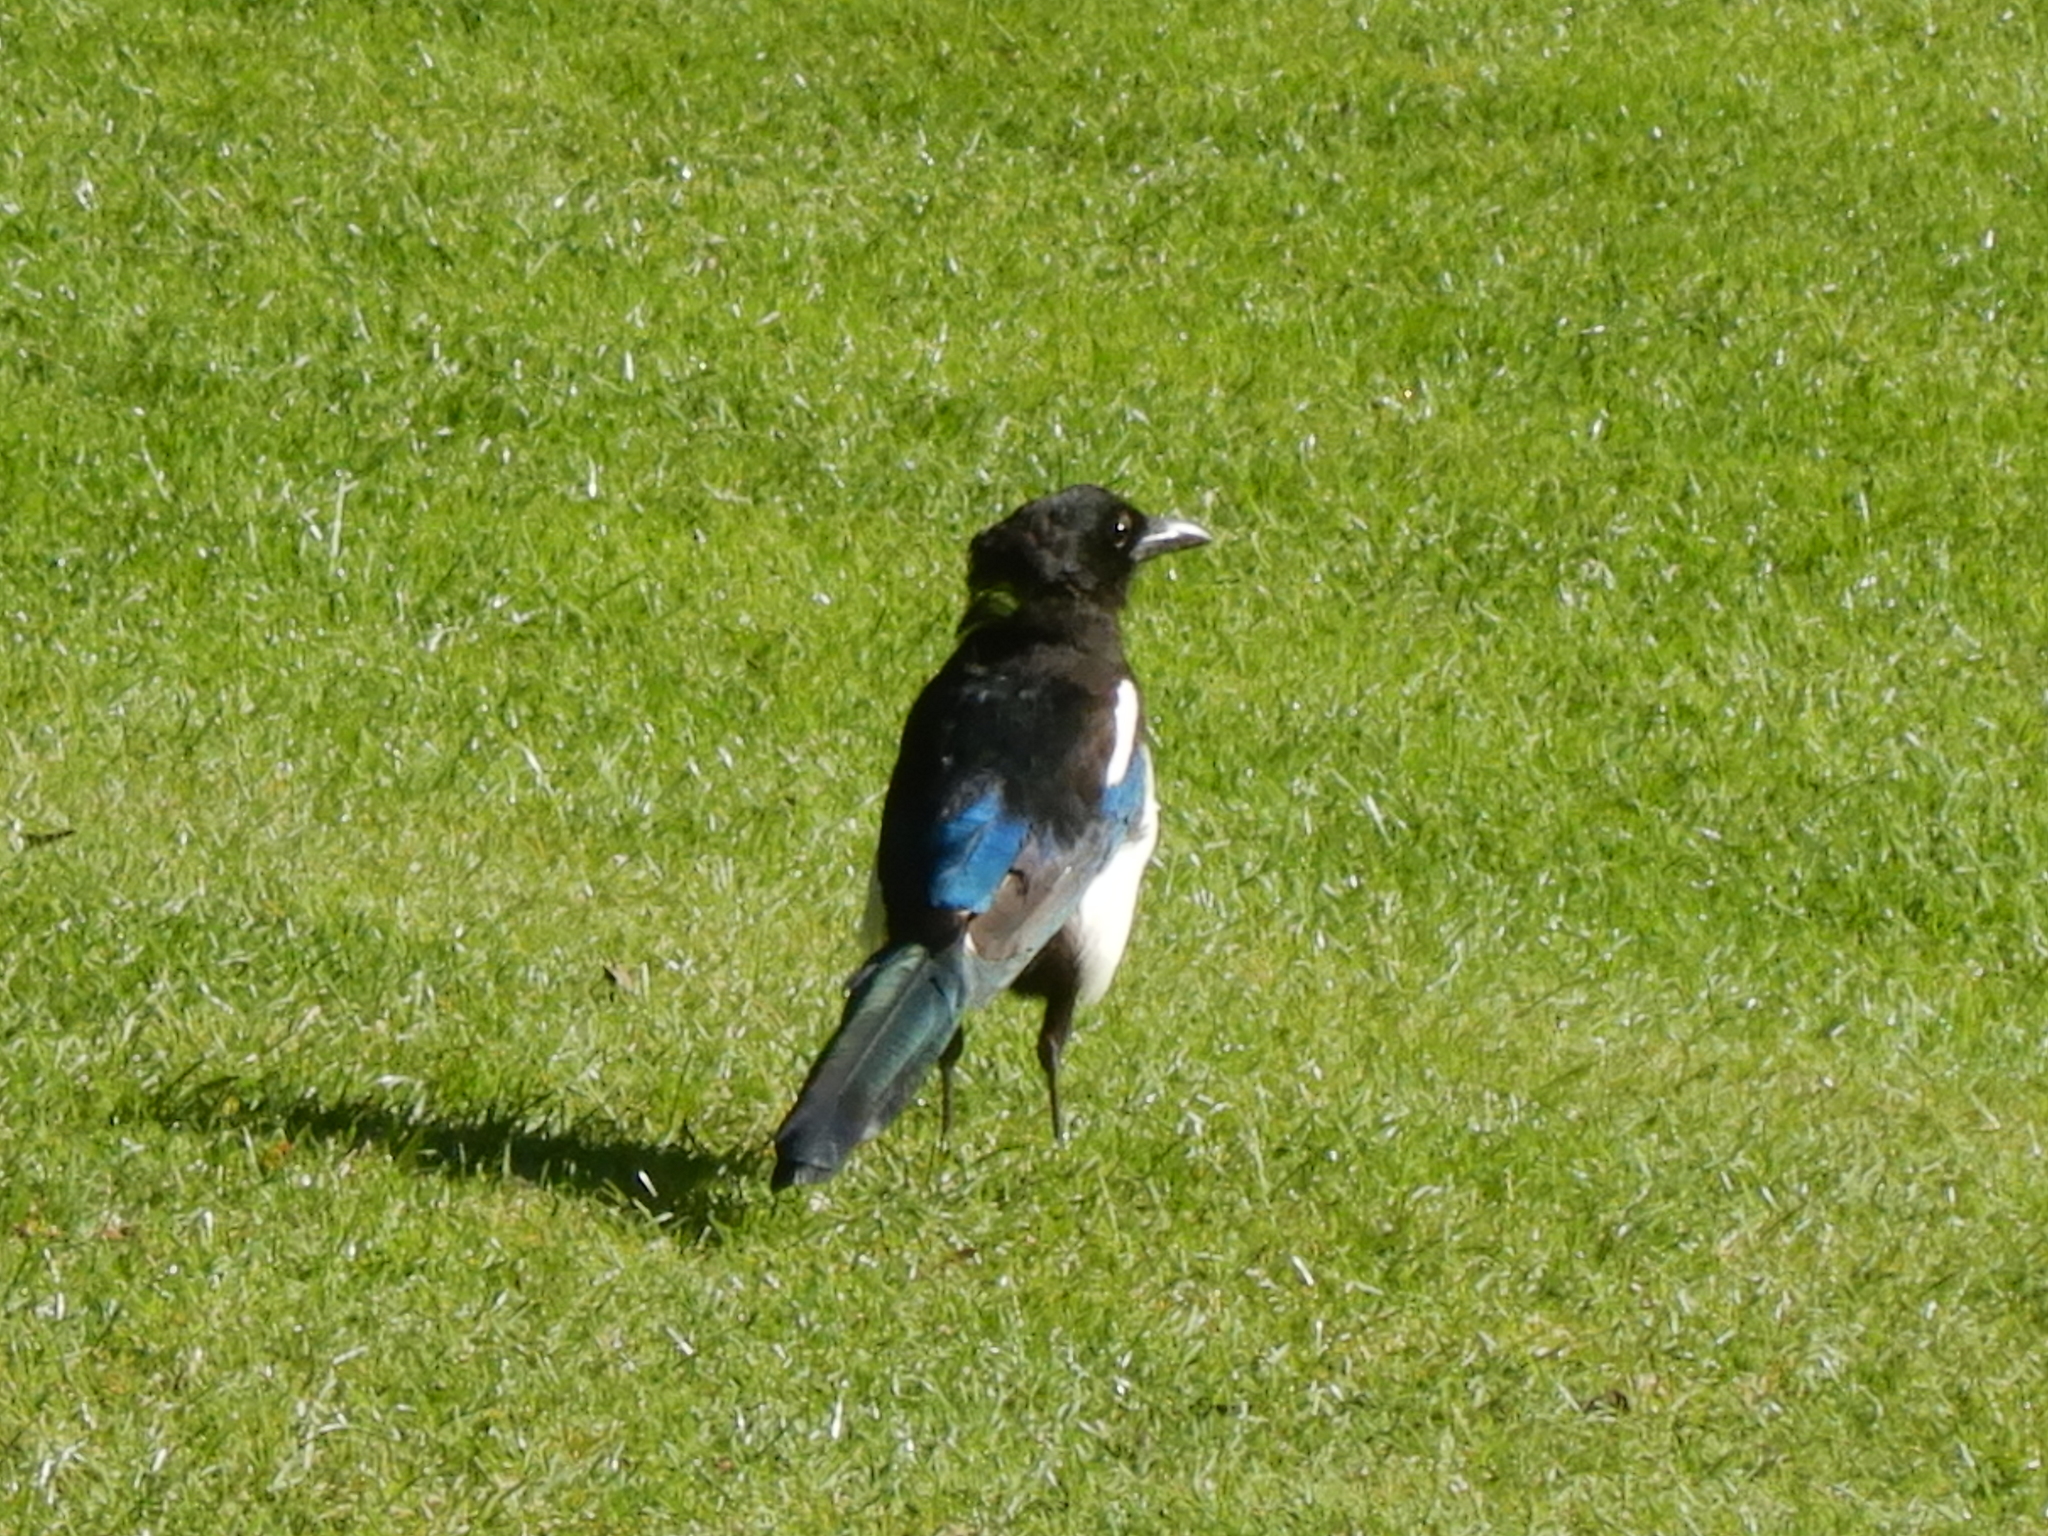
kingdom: Animalia
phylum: Chordata
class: Aves
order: Passeriformes
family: Corvidae
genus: Pica
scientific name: Pica pica
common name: Eurasian magpie
